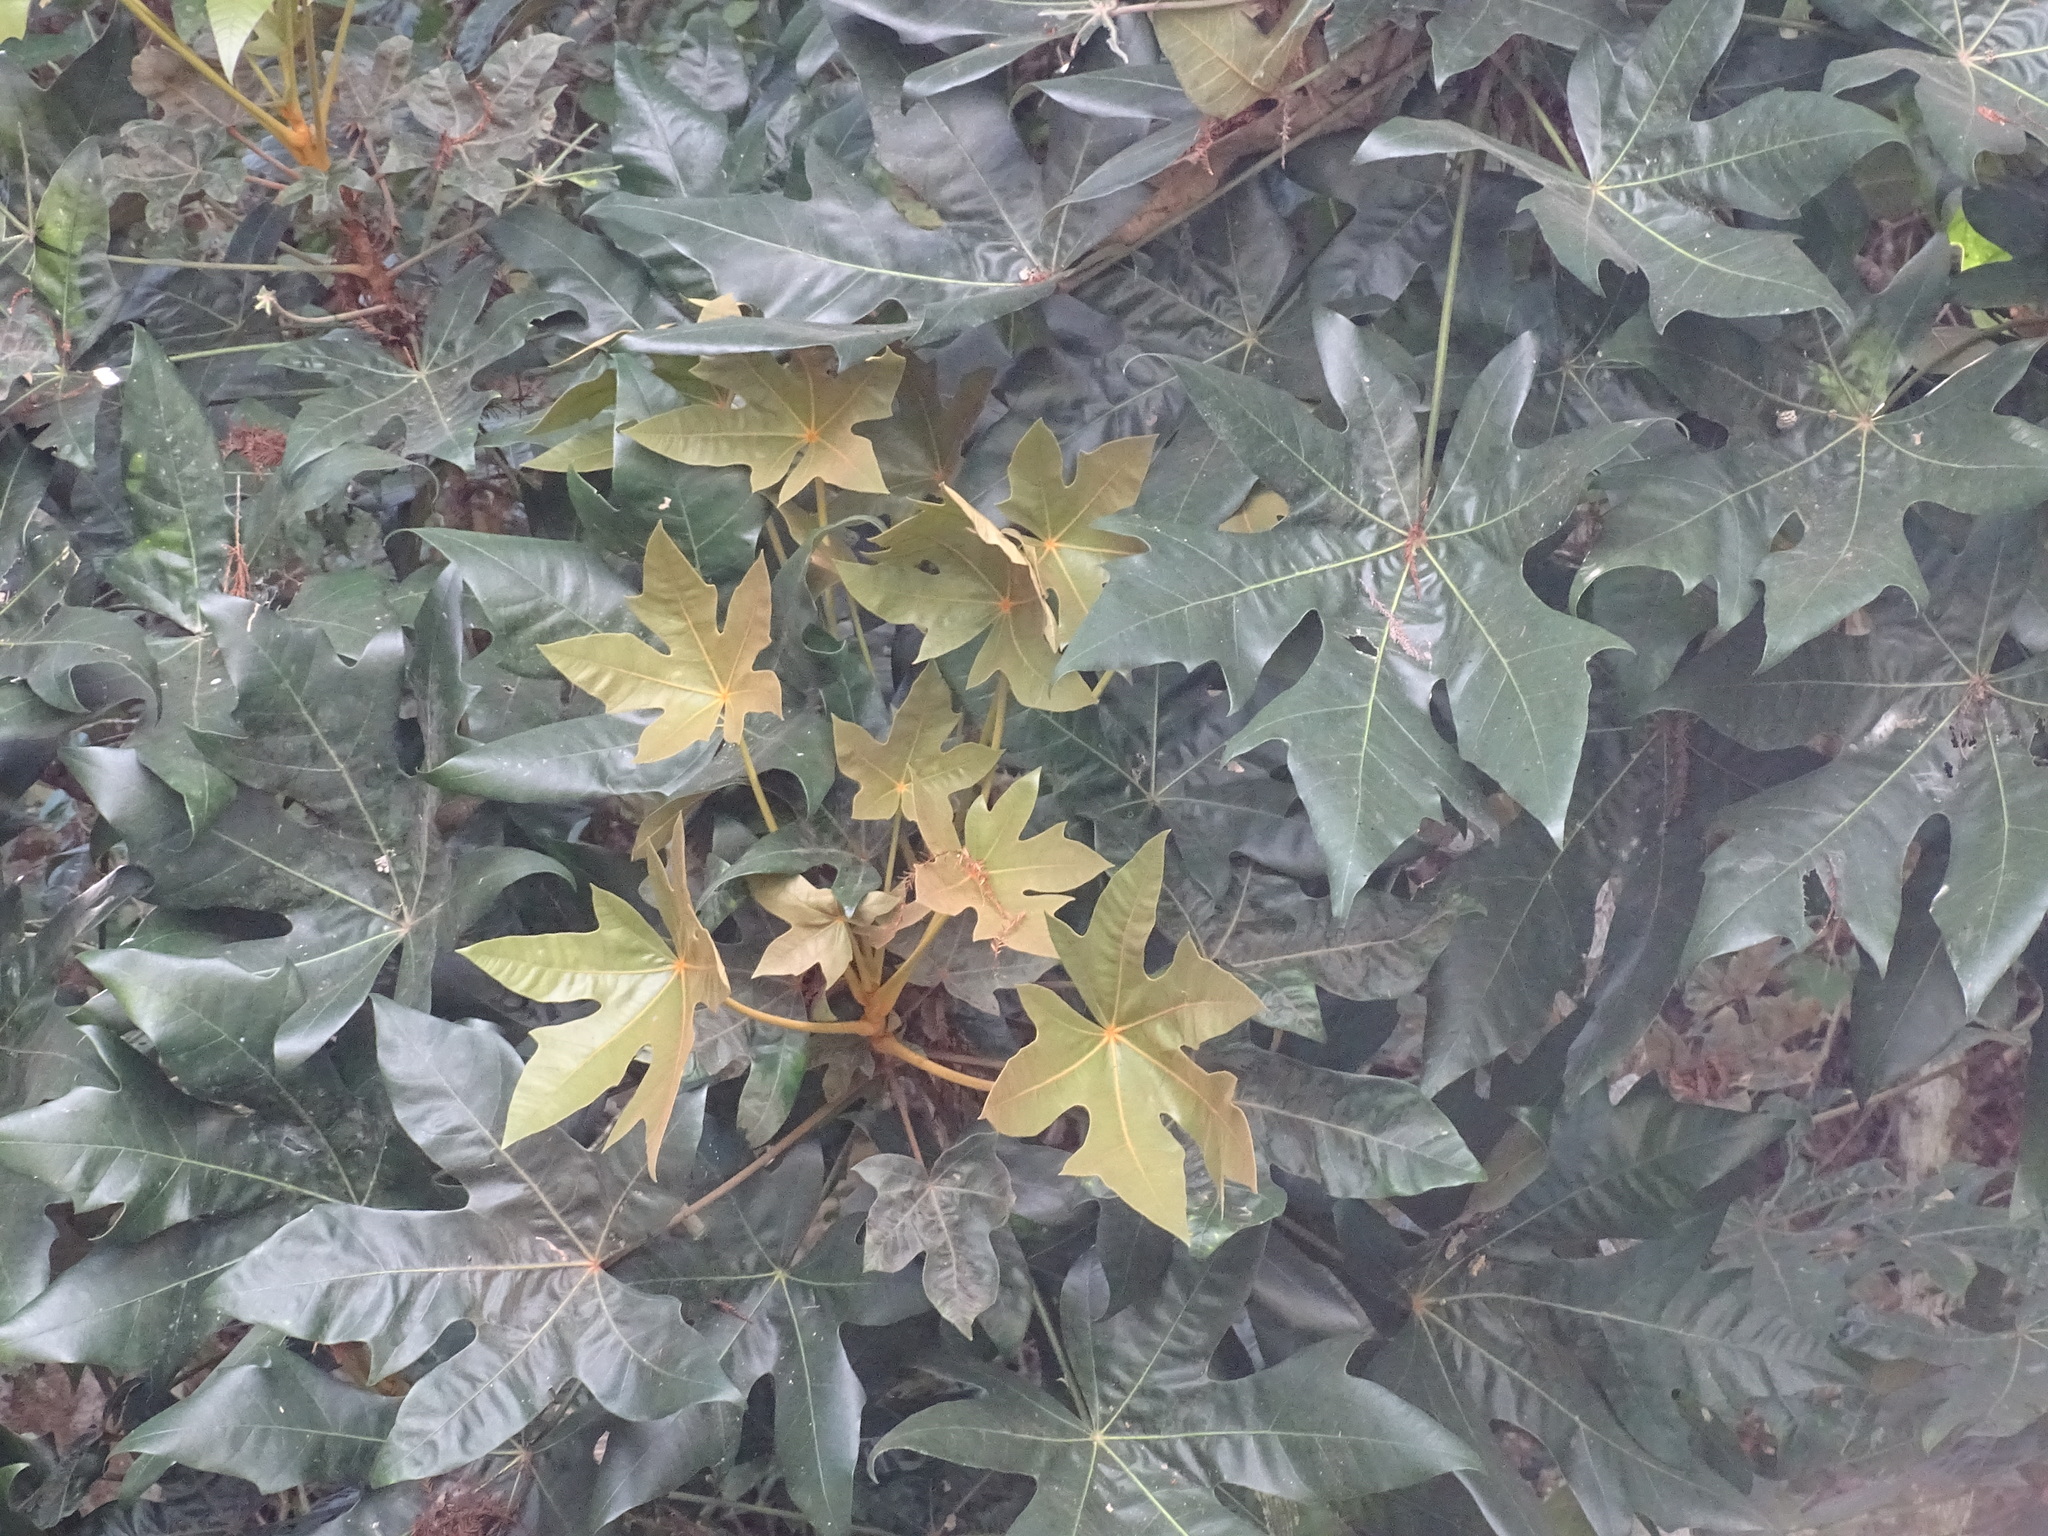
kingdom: Plantae
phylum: Tracheophyta
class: Magnoliopsida
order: Apiales
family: Araliaceae
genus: Oreopanax
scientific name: Oreopanax geminatus
